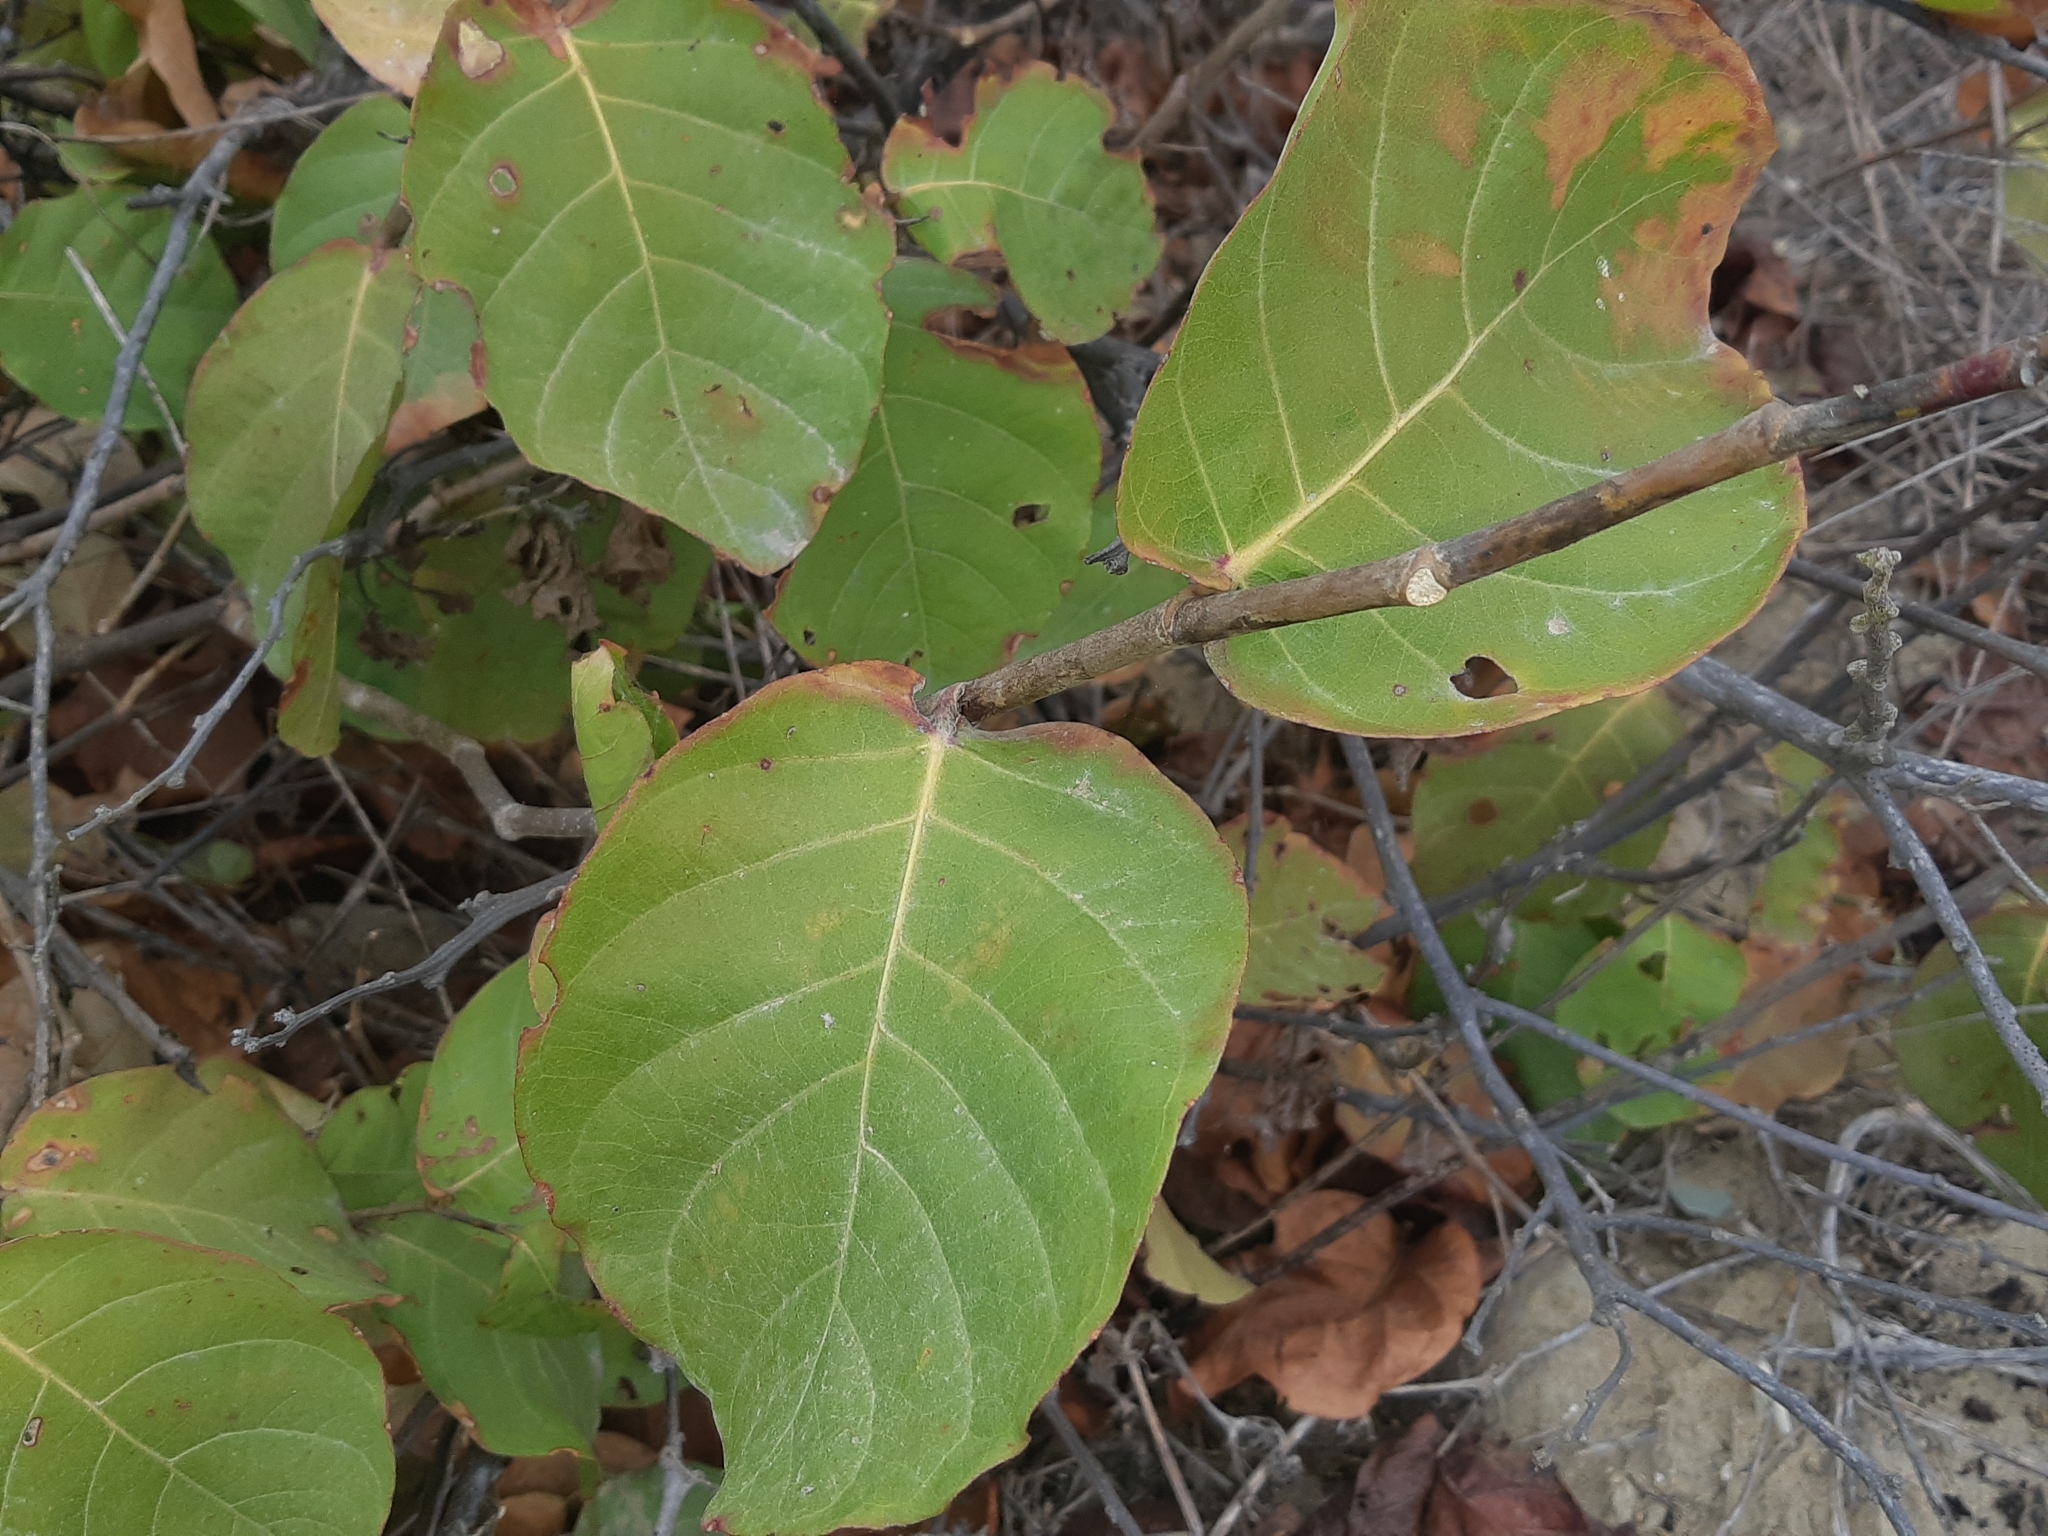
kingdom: Plantae
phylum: Tracheophyta
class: Magnoliopsida
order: Caryophyllales
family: Polygonaceae
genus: Coccoloba
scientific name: Coccoloba uvifera
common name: Seagrape
